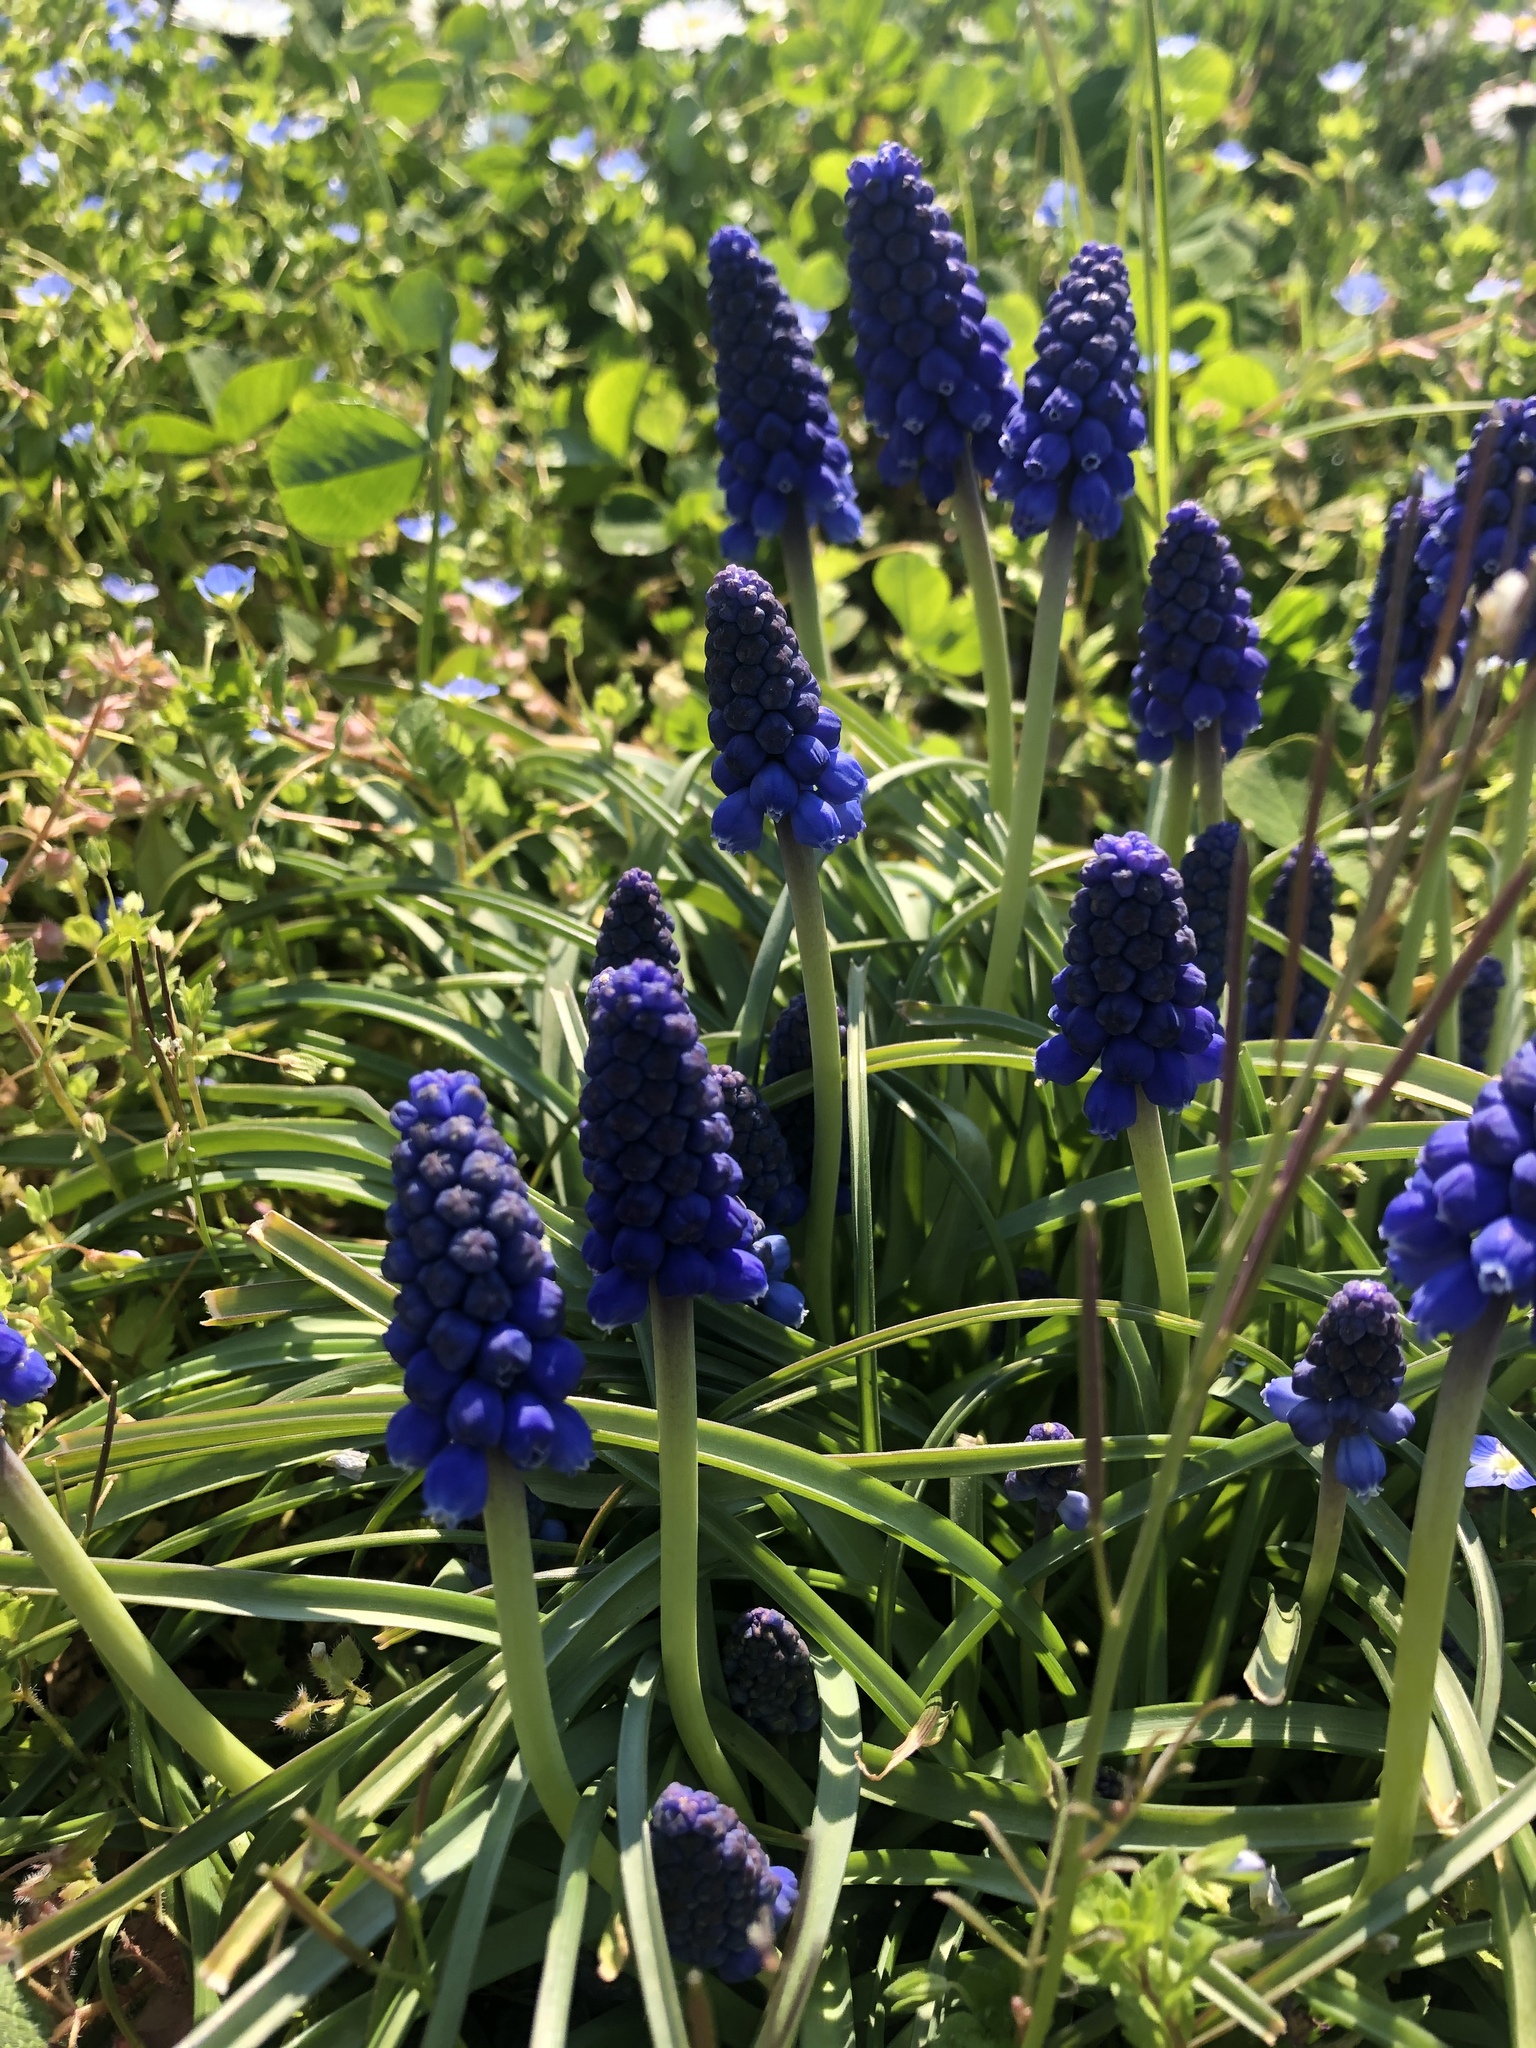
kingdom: Plantae
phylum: Tracheophyta
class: Liliopsida
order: Asparagales
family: Asparagaceae
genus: Muscari
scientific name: Muscari armeniacum
